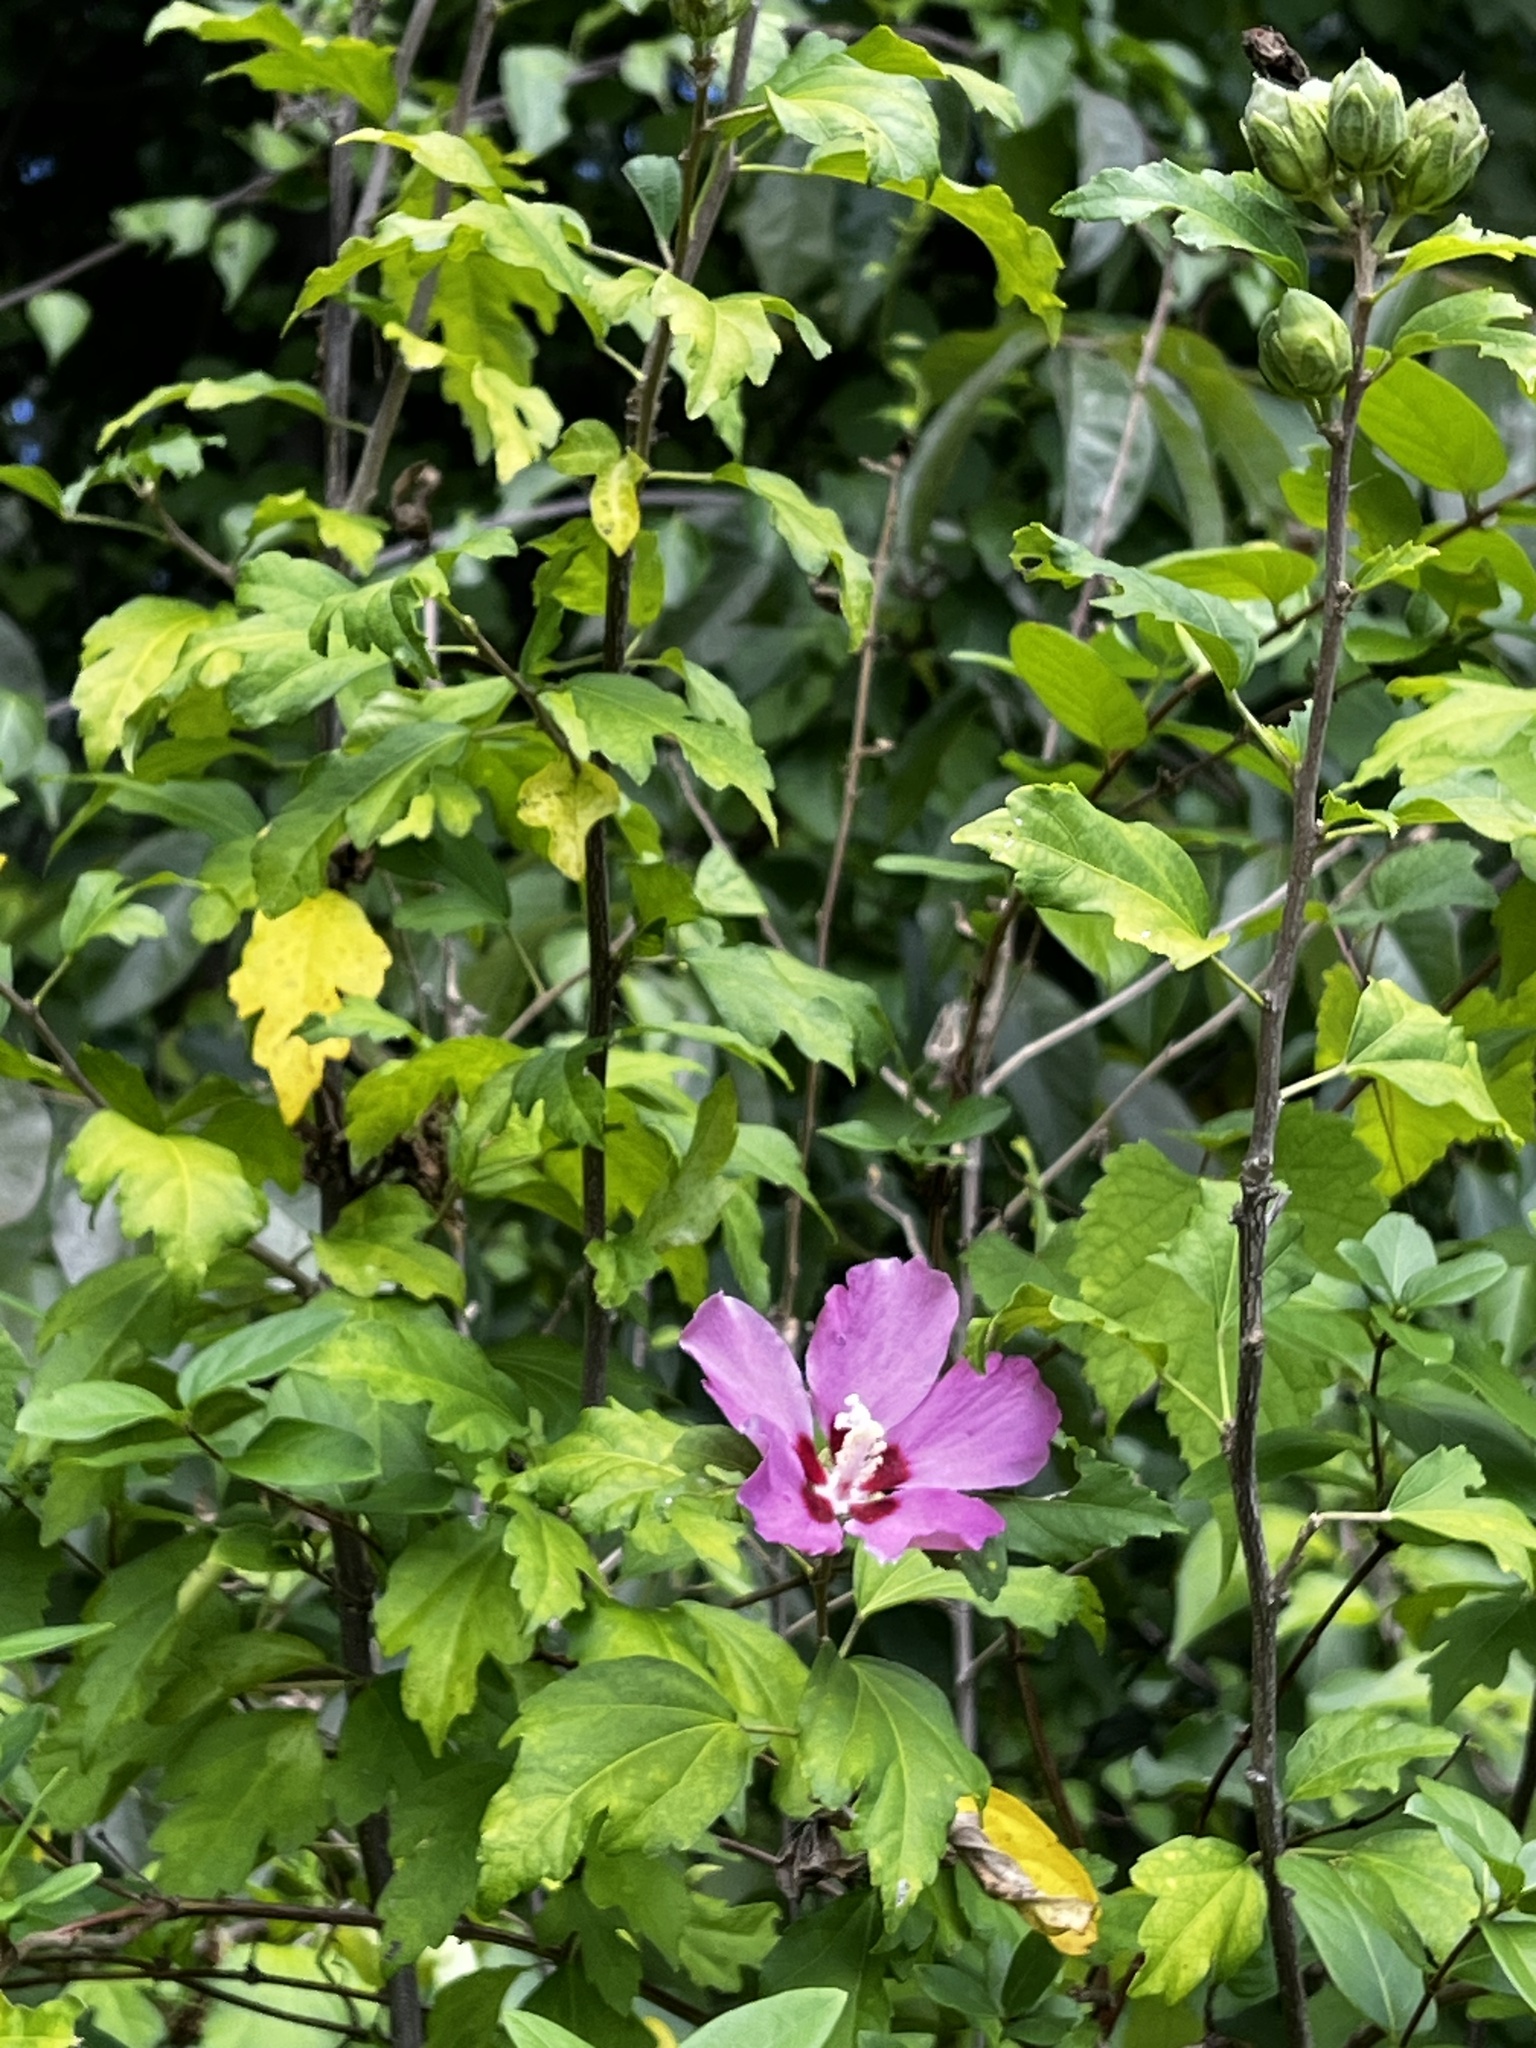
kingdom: Plantae
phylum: Tracheophyta
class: Magnoliopsida
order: Malvales
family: Malvaceae
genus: Hibiscus
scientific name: Hibiscus syriacus
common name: Syrian ketmia
